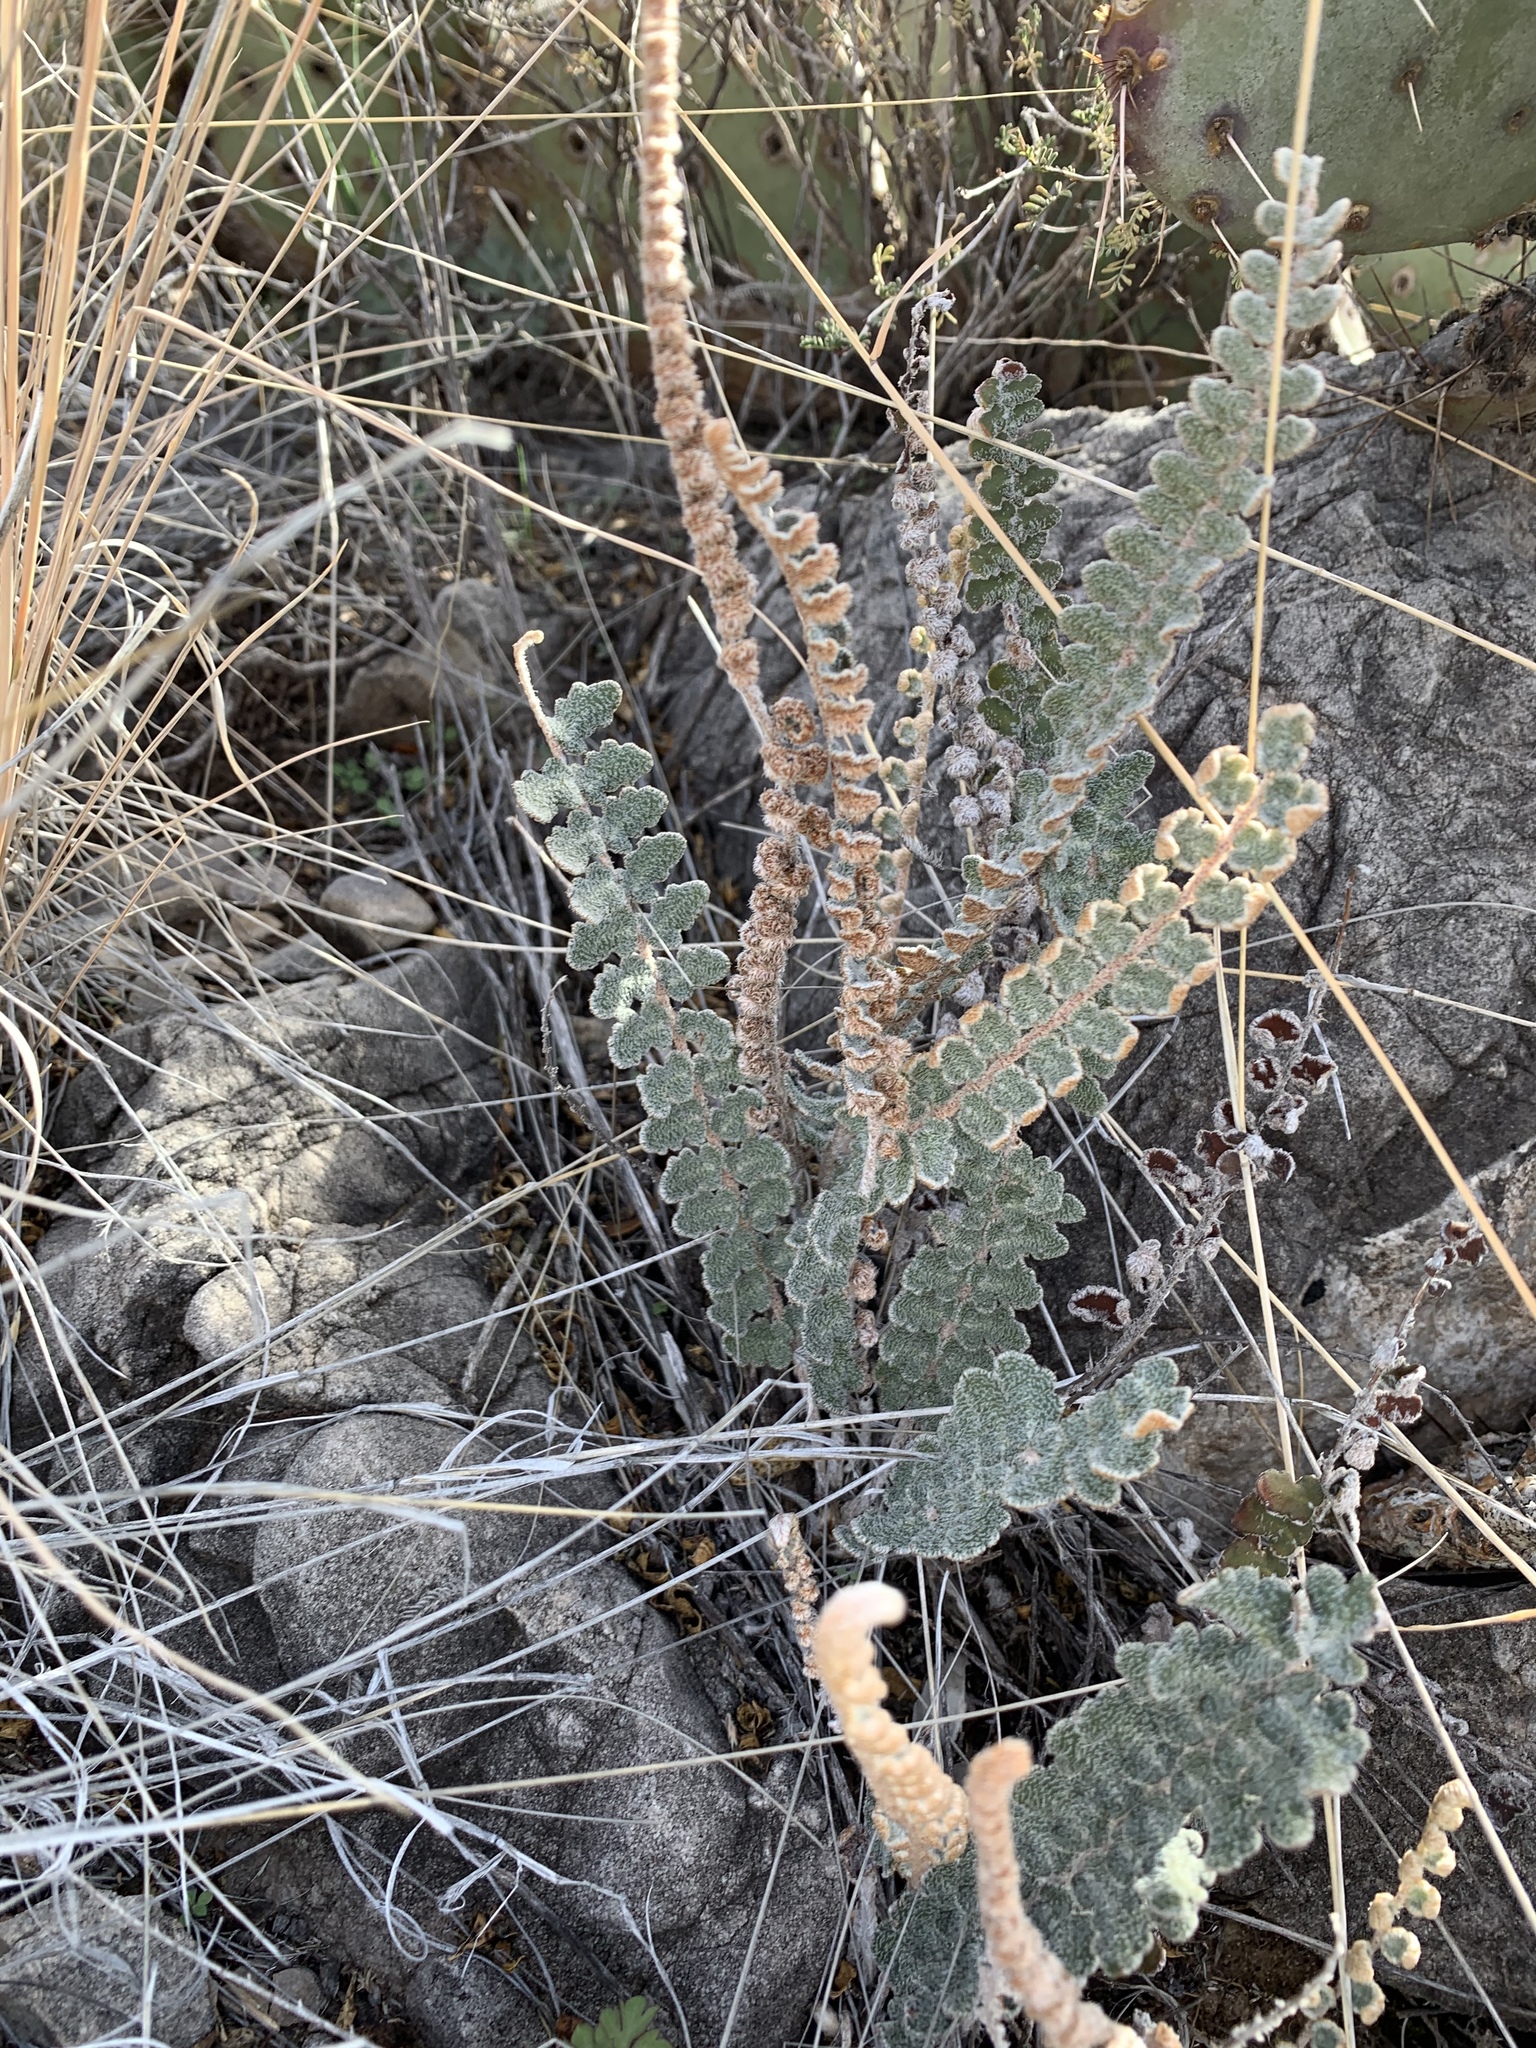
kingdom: Plantae
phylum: Tracheophyta
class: Polypodiopsida
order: Polypodiales
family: Pteridaceae
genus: Astrolepis
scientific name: Astrolepis integerrima
